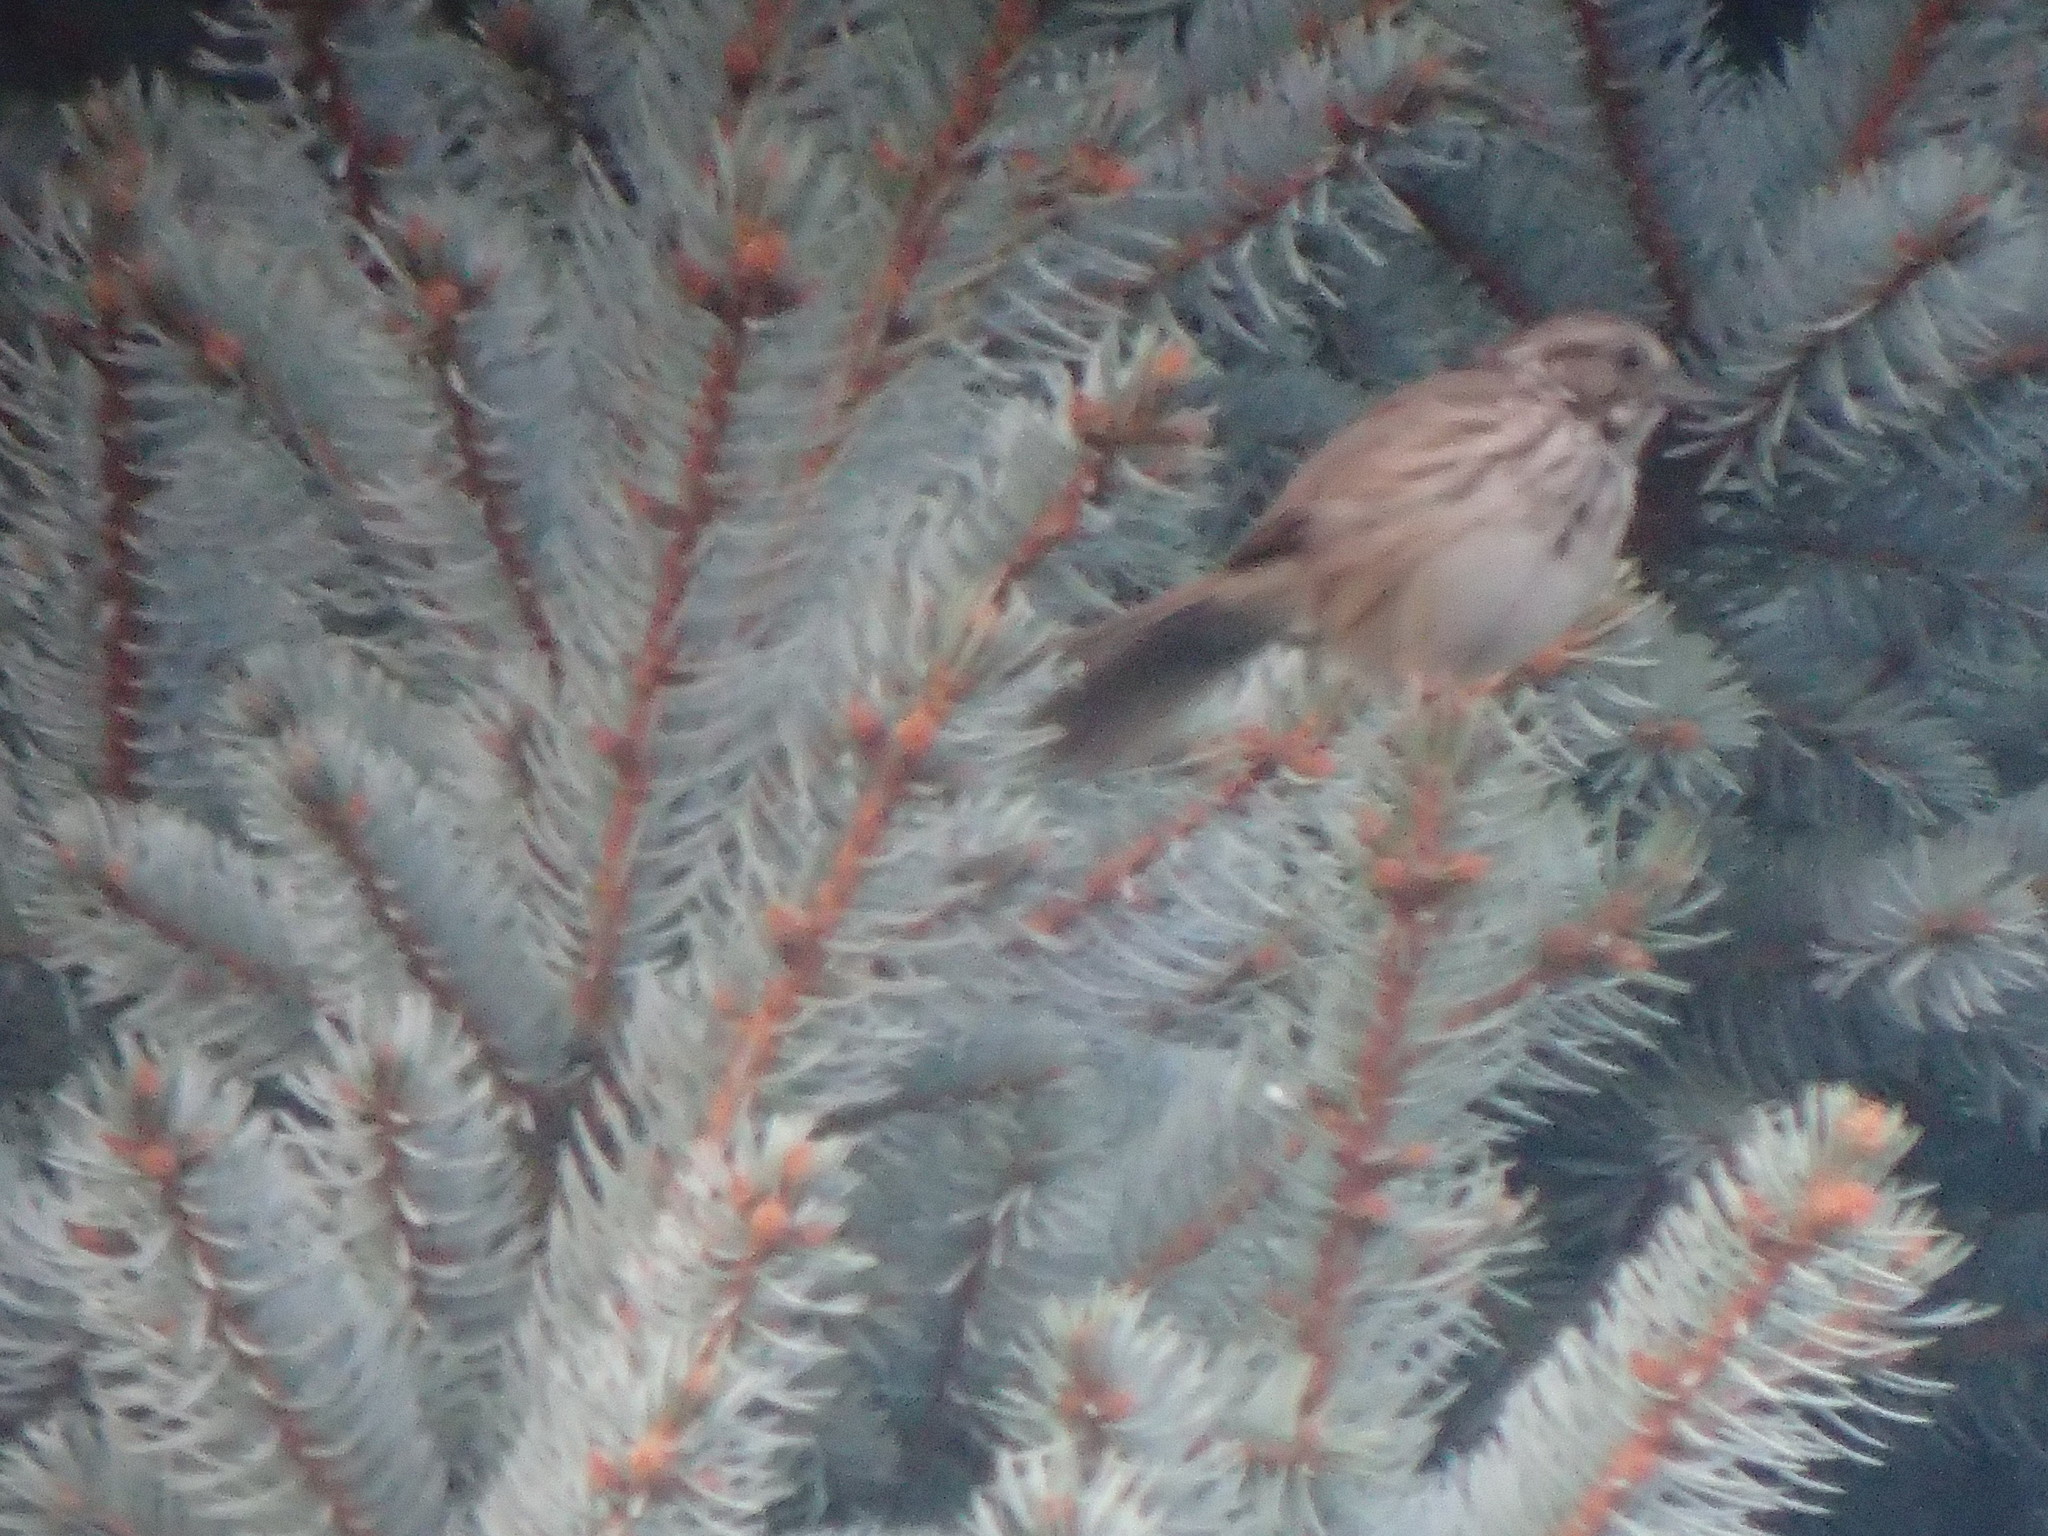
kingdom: Animalia
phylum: Chordata
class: Aves
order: Passeriformes
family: Passerellidae
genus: Melospiza
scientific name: Melospiza melodia
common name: Song sparrow
